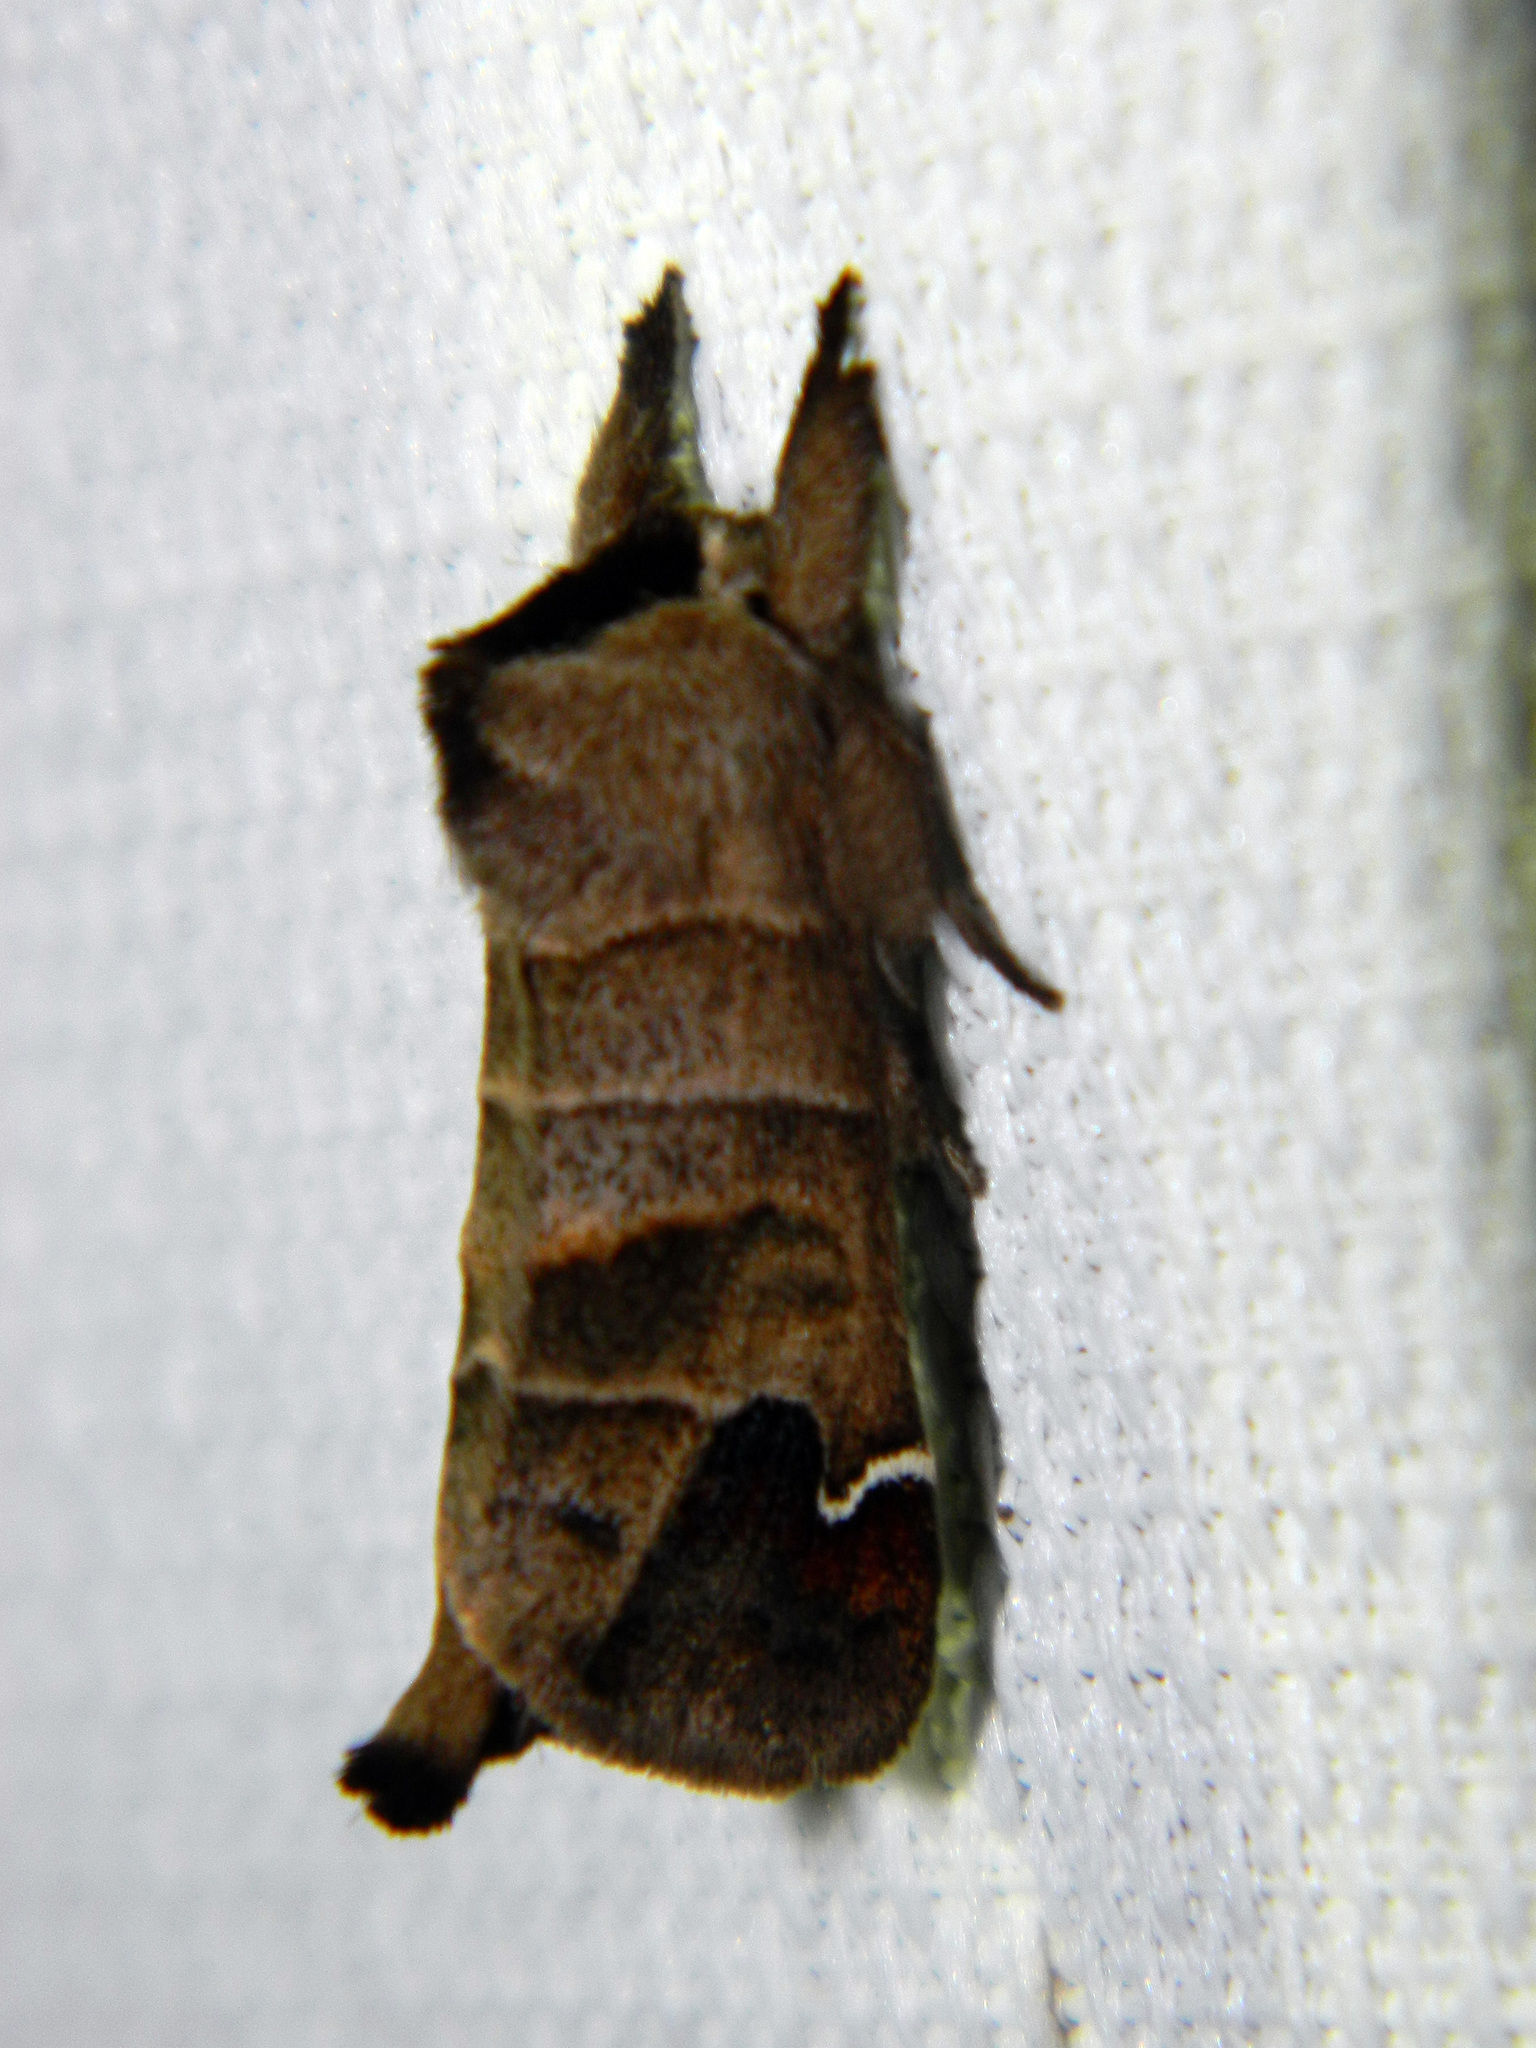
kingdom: Animalia
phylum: Arthropoda
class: Insecta
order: Lepidoptera
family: Notodontidae
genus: Clostera
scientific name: Clostera albosigma
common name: Sigmoid prominent
